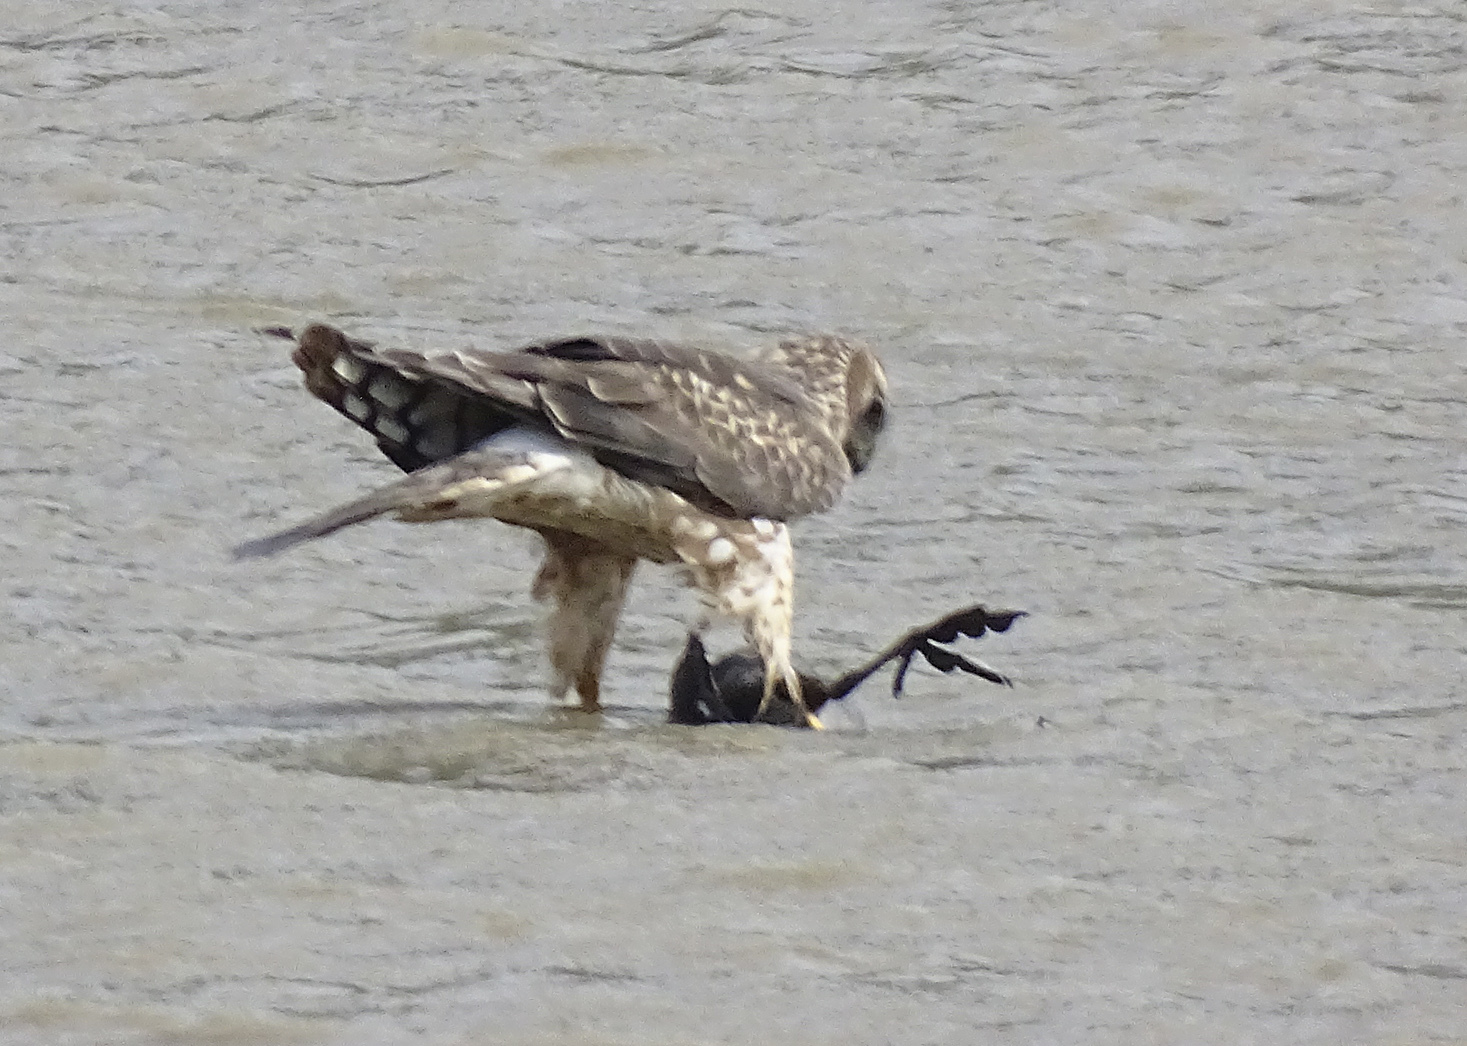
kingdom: Animalia
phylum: Chordata
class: Aves
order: Accipitriformes
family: Accipitridae
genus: Circus
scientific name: Circus cyaneus
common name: Hen harrier
